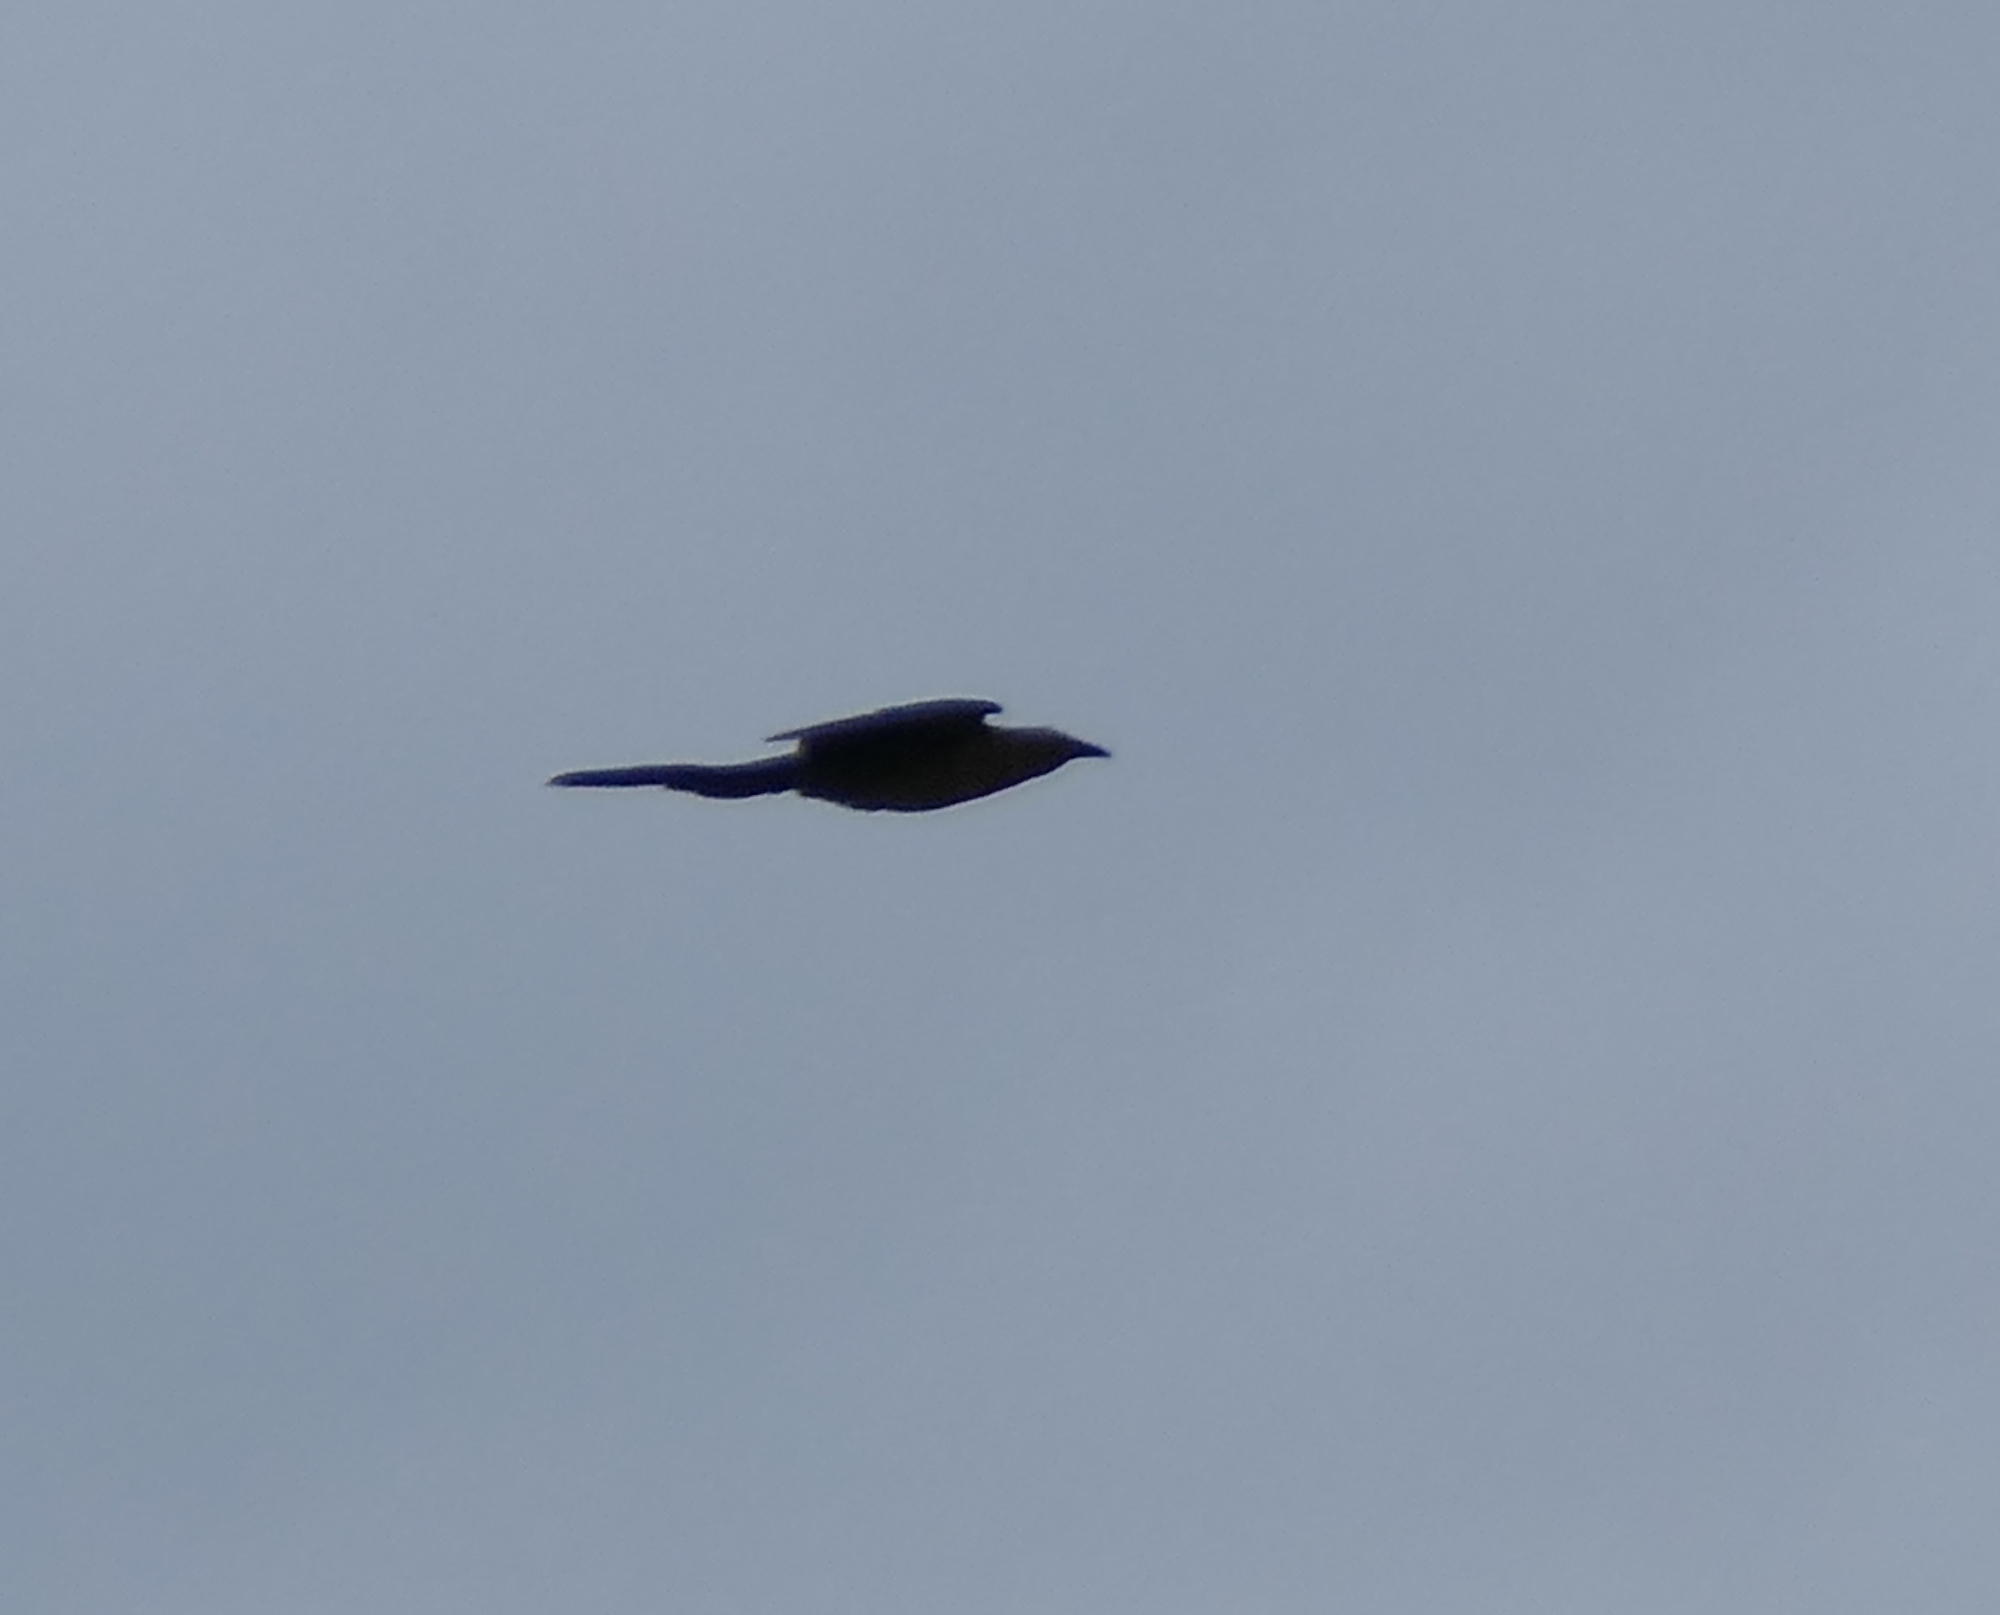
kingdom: Animalia
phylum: Chordata
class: Aves
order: Passeriformes
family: Icteridae
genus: Quiscalus
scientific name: Quiscalus mexicanus
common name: Great-tailed grackle
